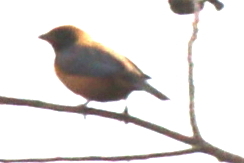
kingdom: Animalia
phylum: Chordata
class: Aves
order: Passeriformes
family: Thraupidae
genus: Stilpnia
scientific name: Stilpnia cayana
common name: Burnished-buff tanager
